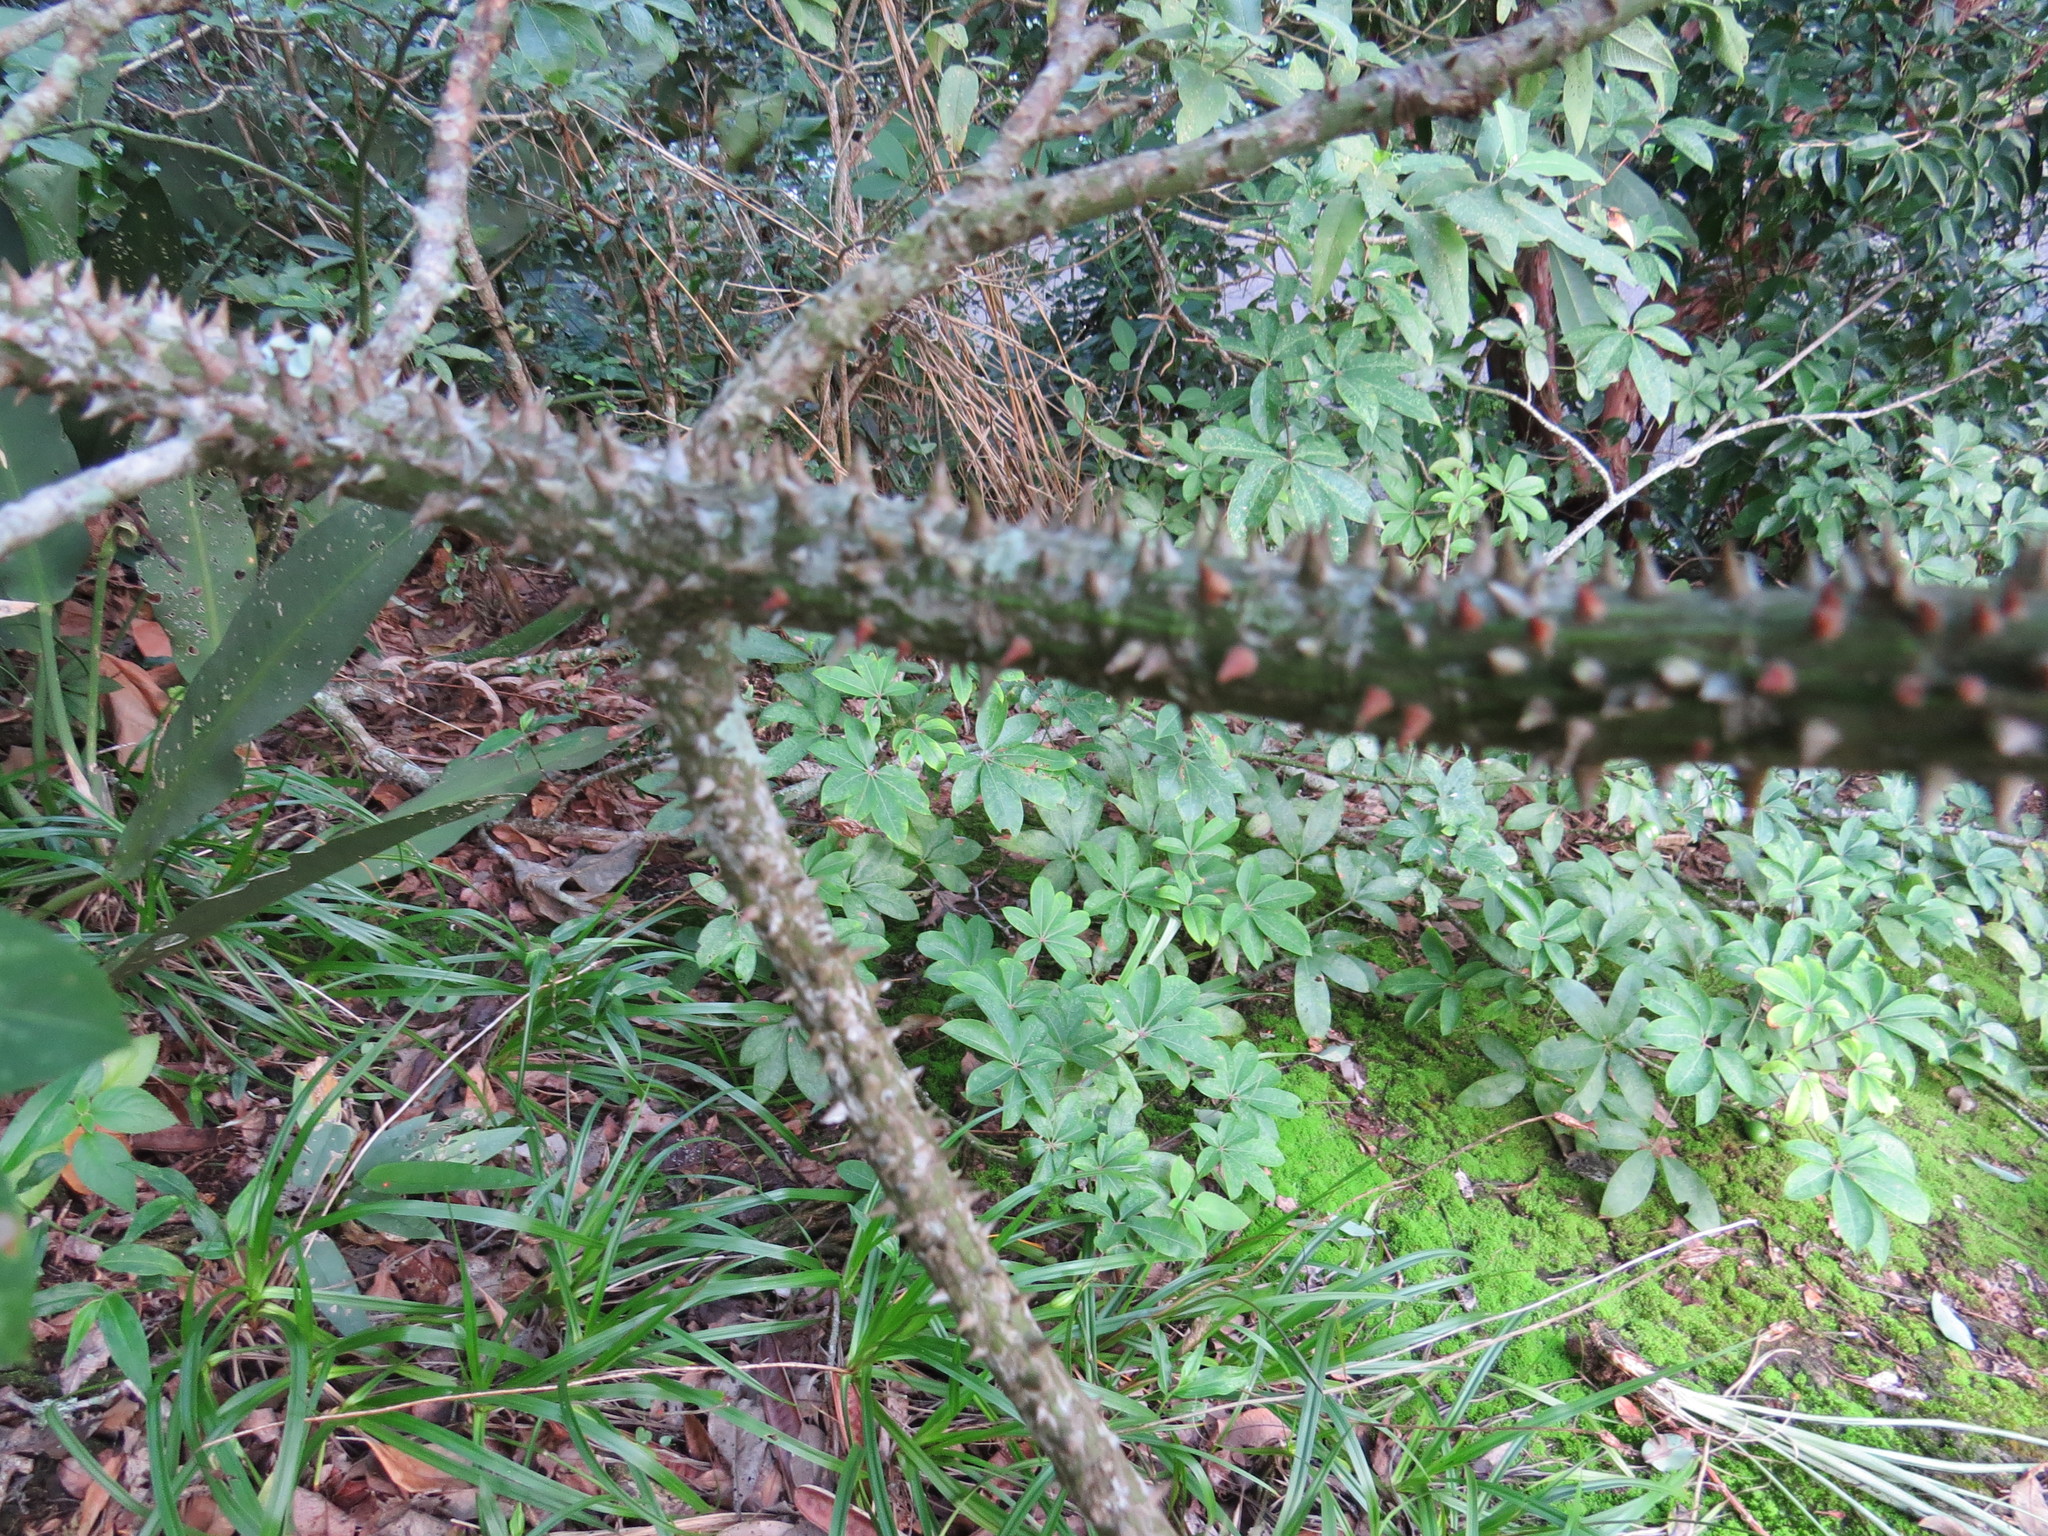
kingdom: Plantae
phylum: Tracheophyta
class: Magnoliopsida
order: Malvales
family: Malvaceae
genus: Ceiba
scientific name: Ceiba erianthos
